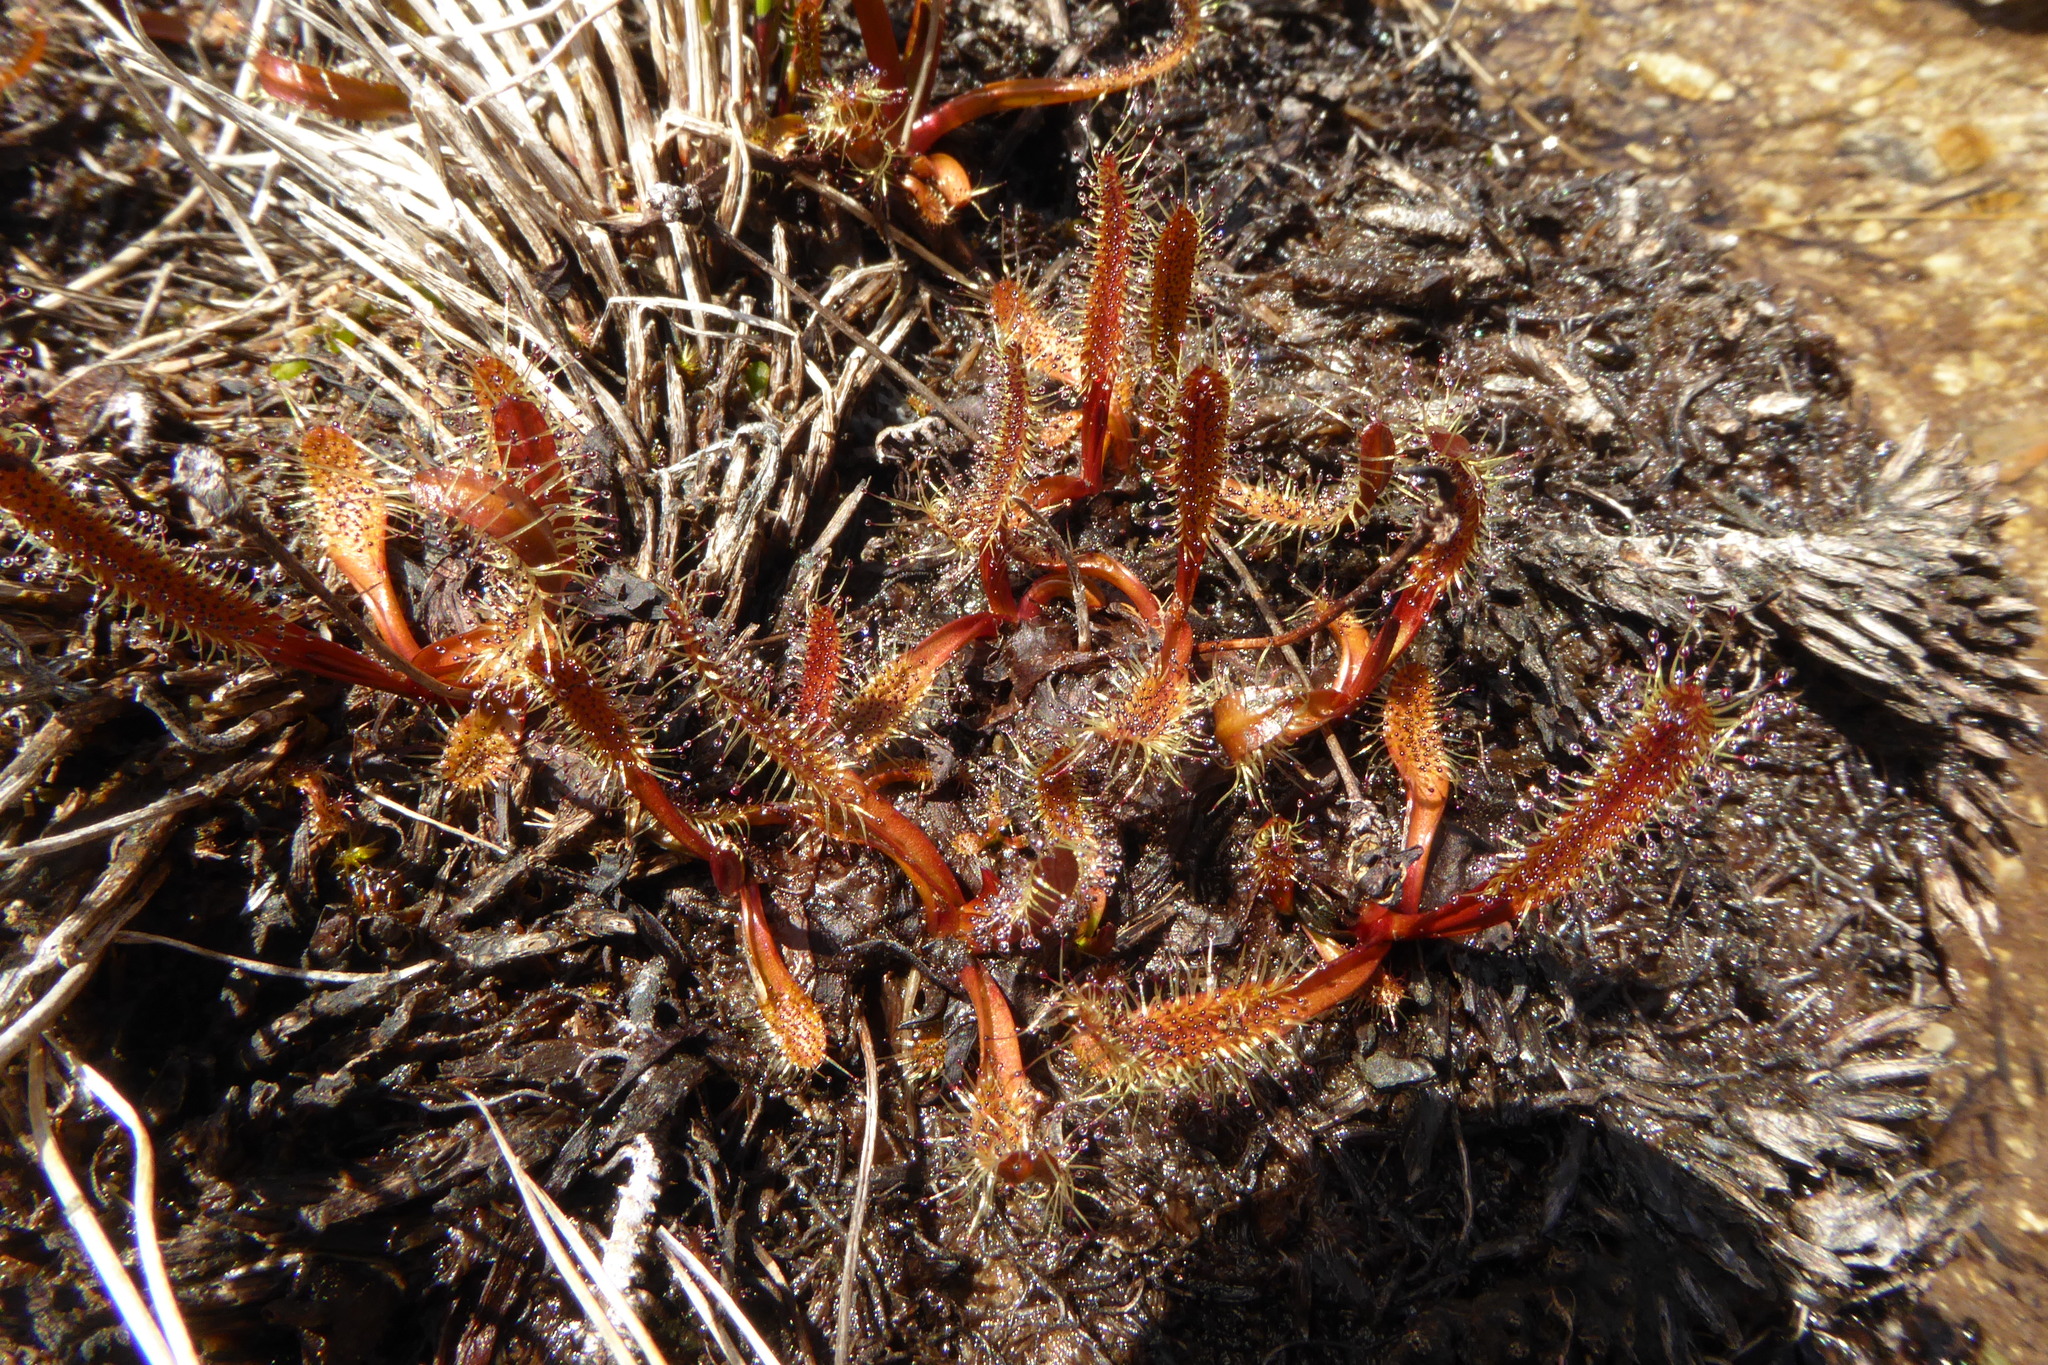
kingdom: Plantae
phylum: Tracheophyta
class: Magnoliopsida
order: Caryophyllales
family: Droseraceae
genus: Drosera
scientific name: Drosera arcturi
